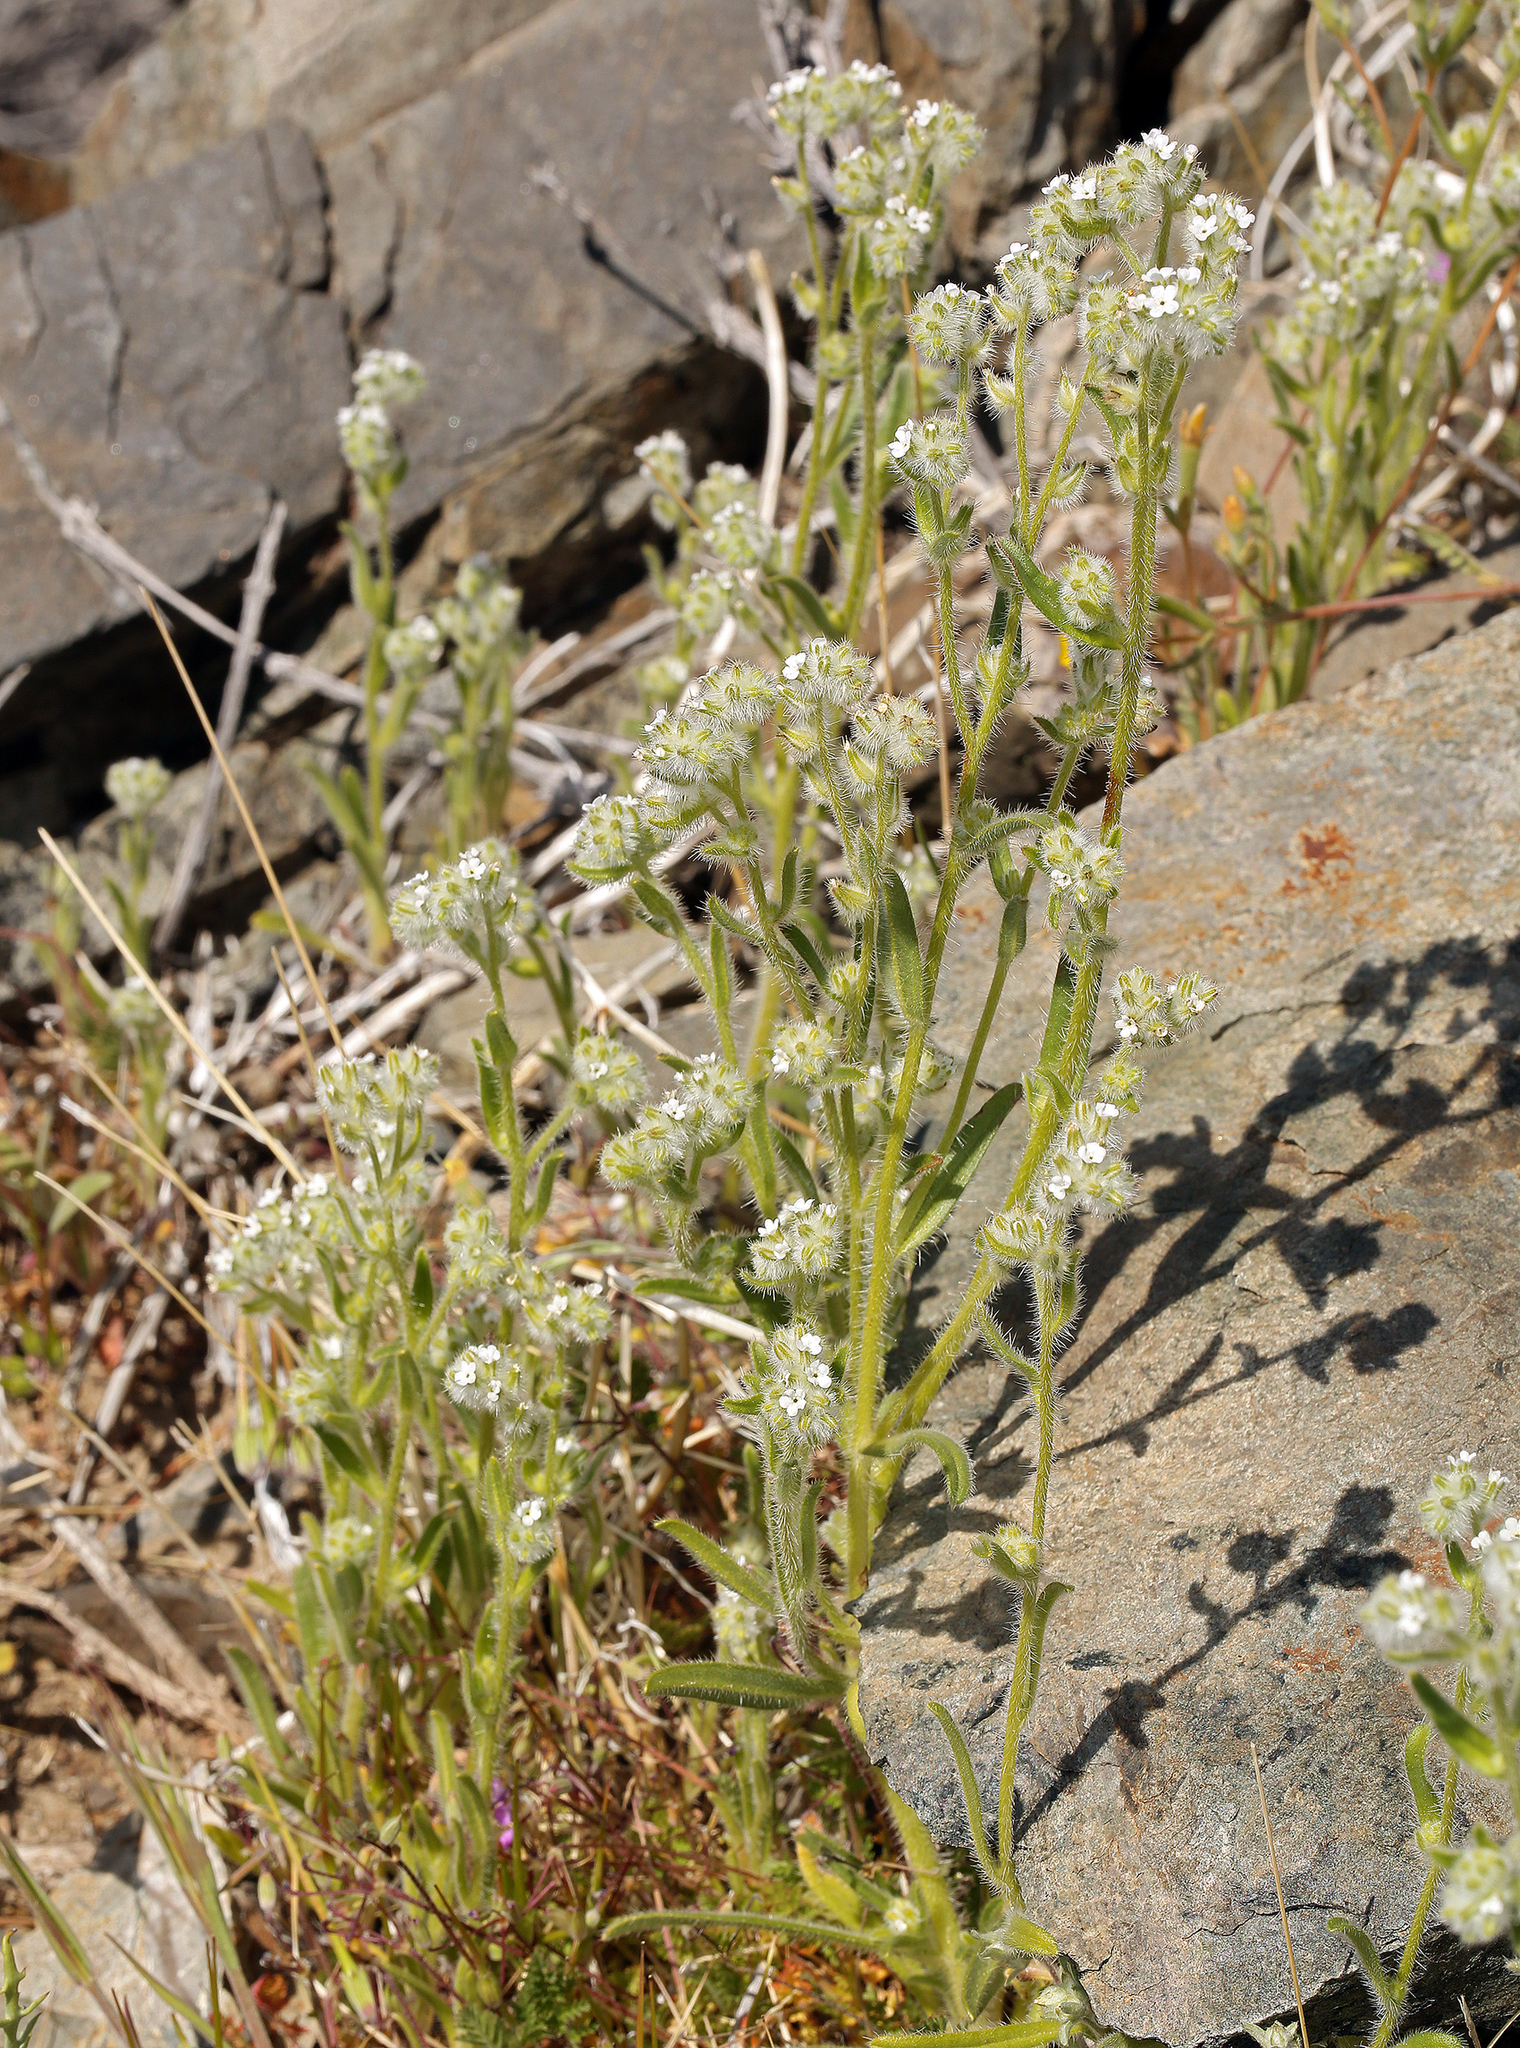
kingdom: Plantae
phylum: Tracheophyta
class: Magnoliopsida
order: Boraginales
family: Boraginaceae
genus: Cryptantha
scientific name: Cryptantha barbigera
